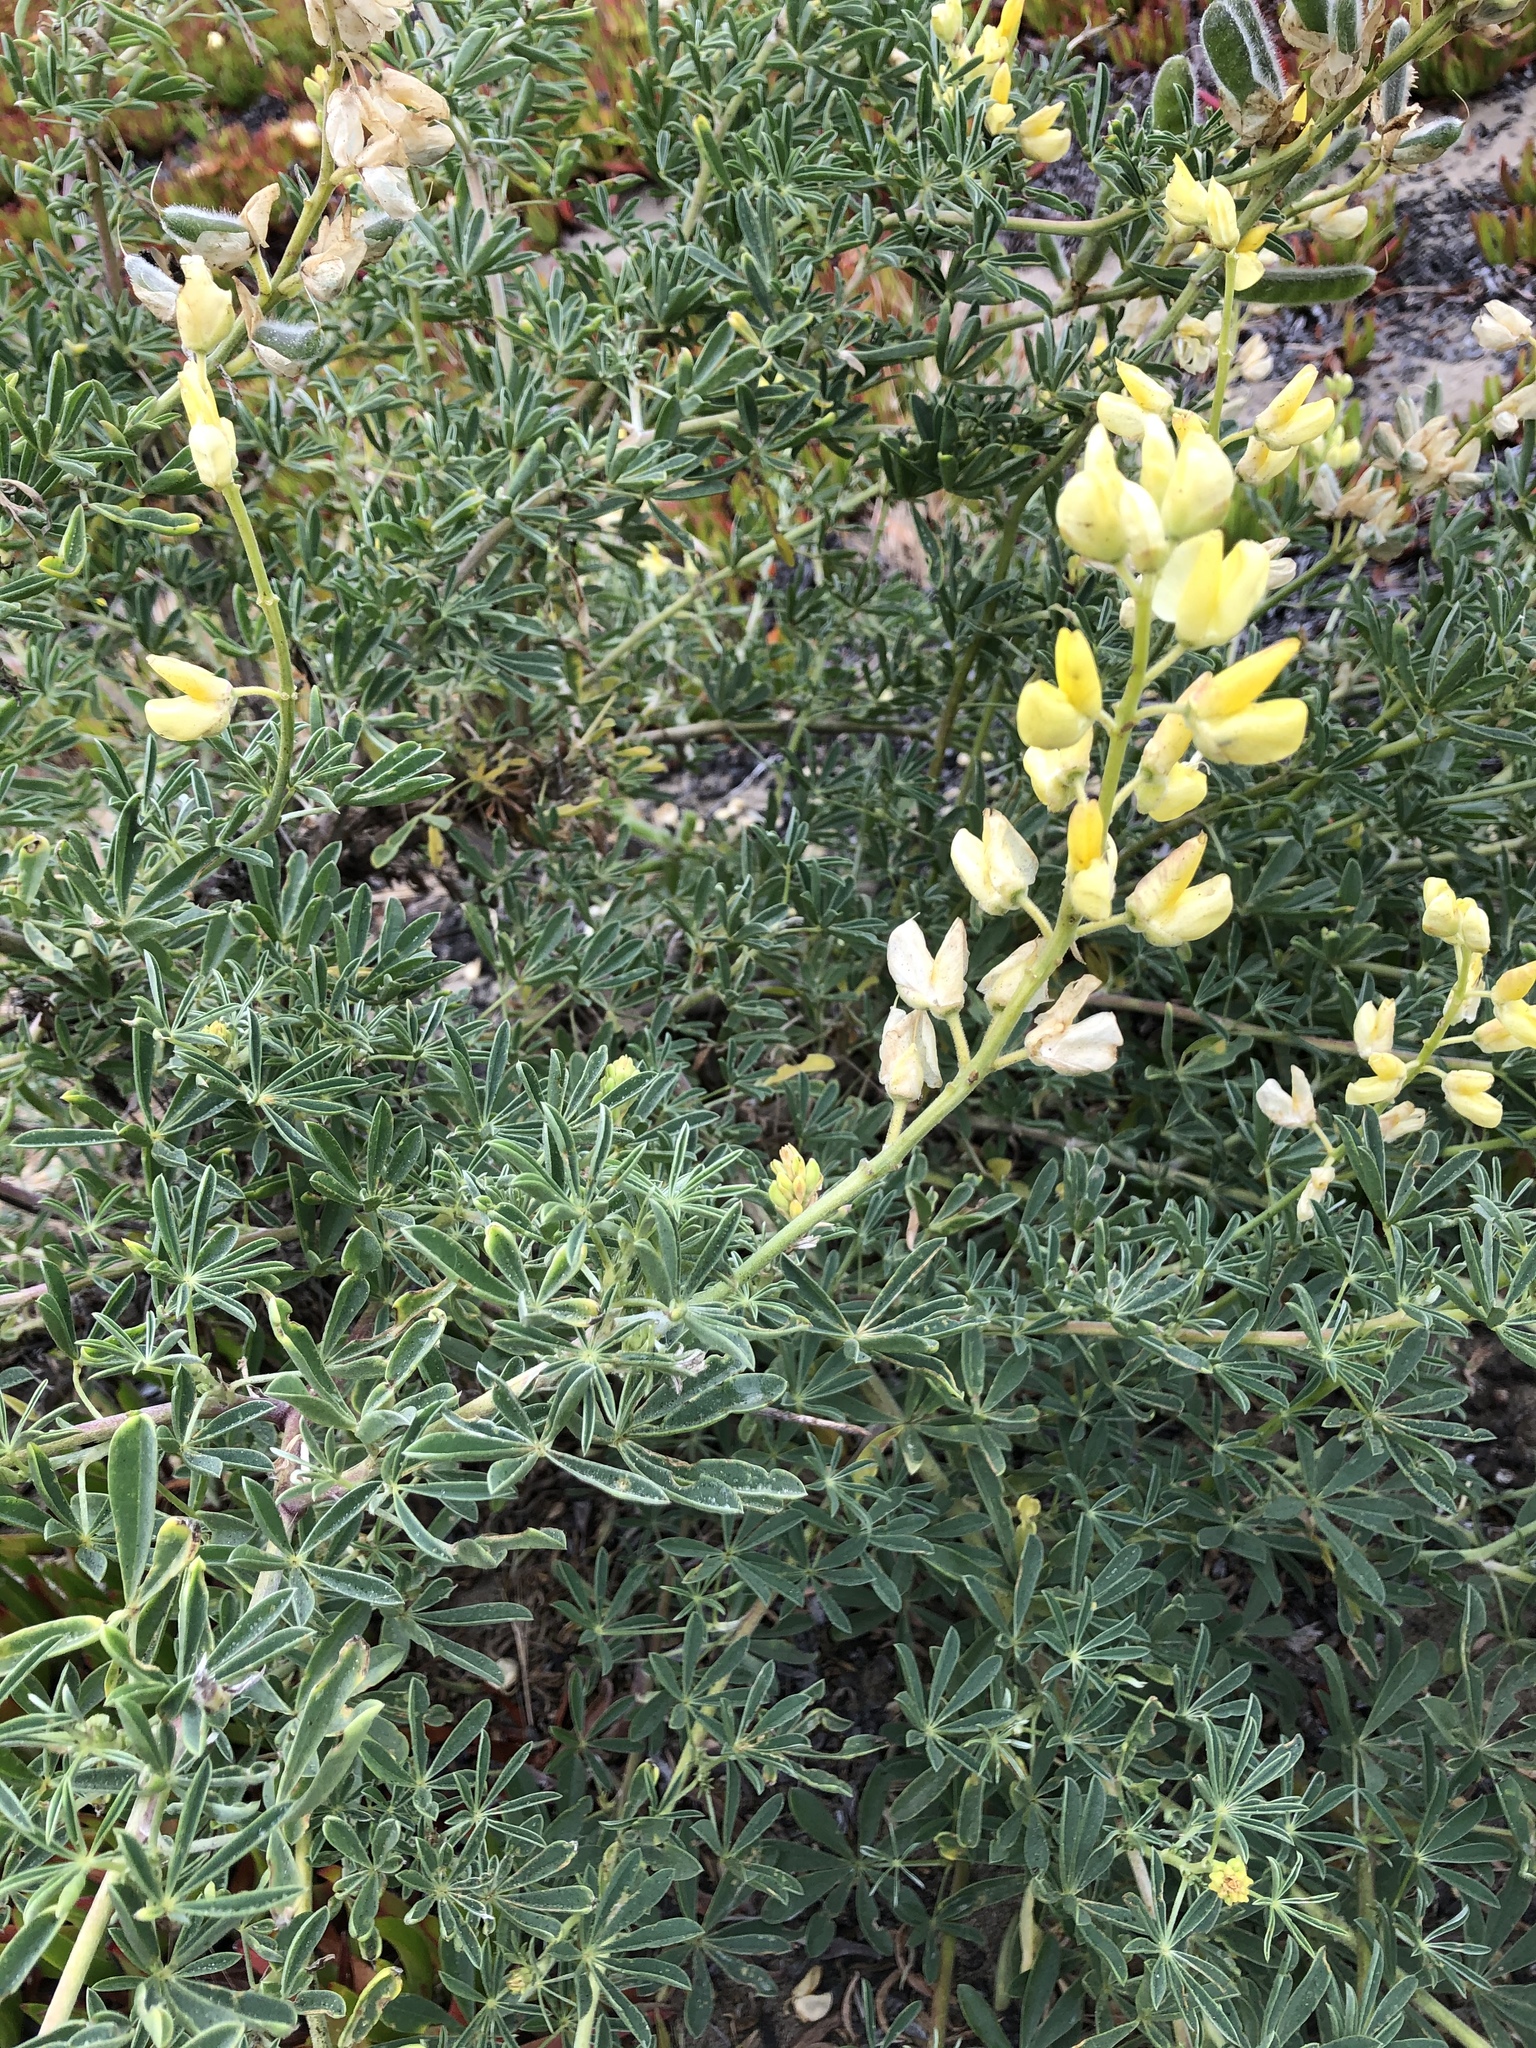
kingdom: Plantae
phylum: Tracheophyta
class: Magnoliopsida
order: Fabales
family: Fabaceae
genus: Lupinus
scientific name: Lupinus arboreus
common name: Yellow bush lupine
